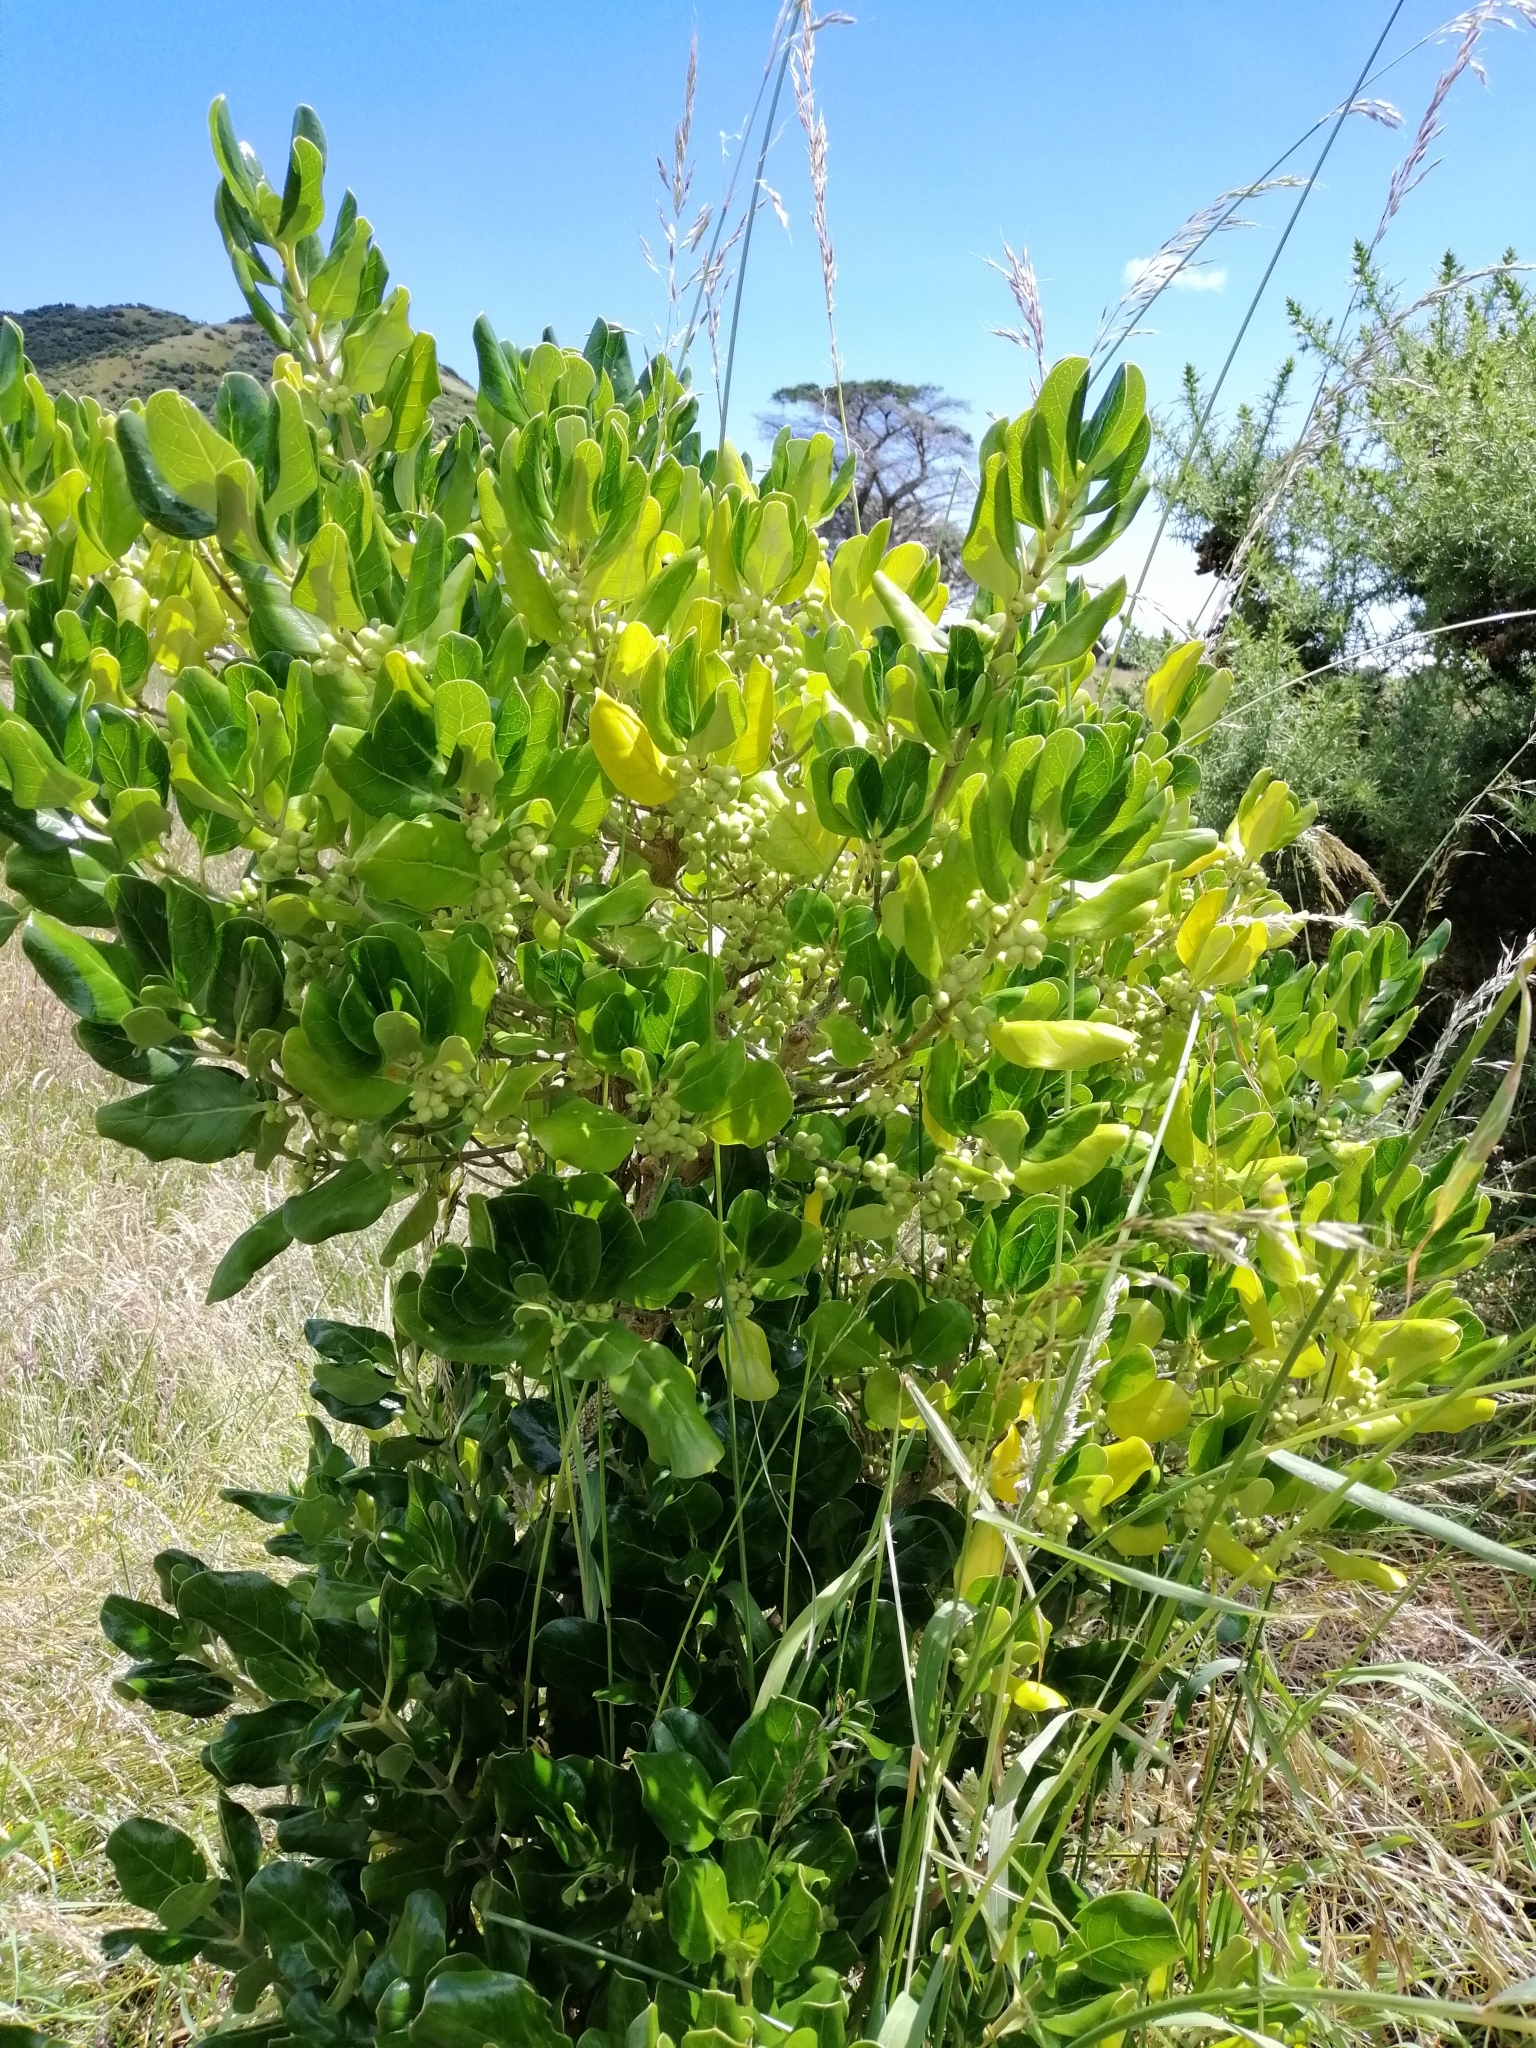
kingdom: Plantae
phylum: Tracheophyta
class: Magnoliopsida
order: Gentianales
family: Rubiaceae
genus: Coprosma
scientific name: Coprosma repens
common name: Tree bedstraw
